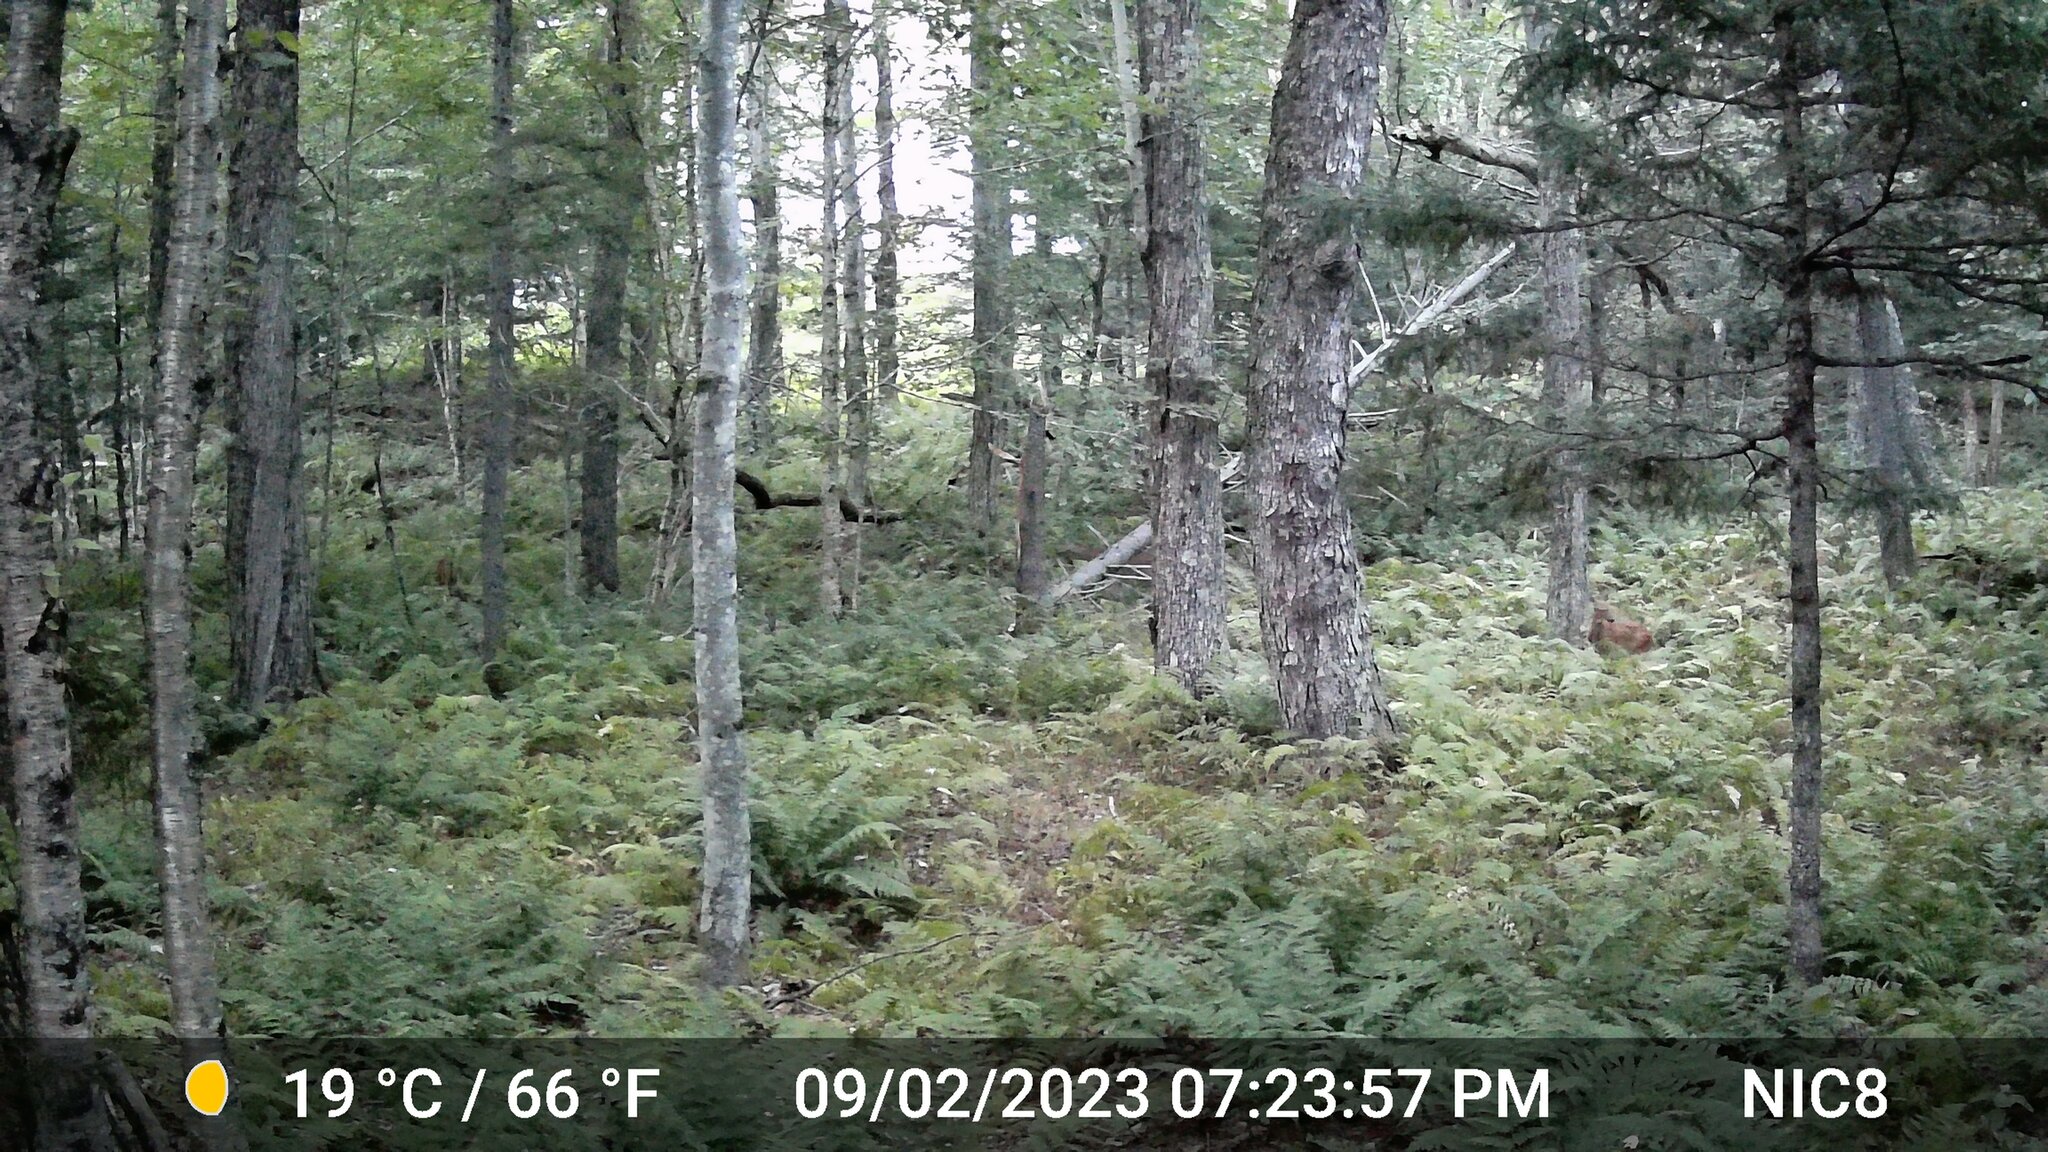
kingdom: Animalia
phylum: Chordata
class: Mammalia
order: Artiodactyla
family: Cervidae
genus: Odocoileus
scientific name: Odocoileus virginianus
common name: White-tailed deer
